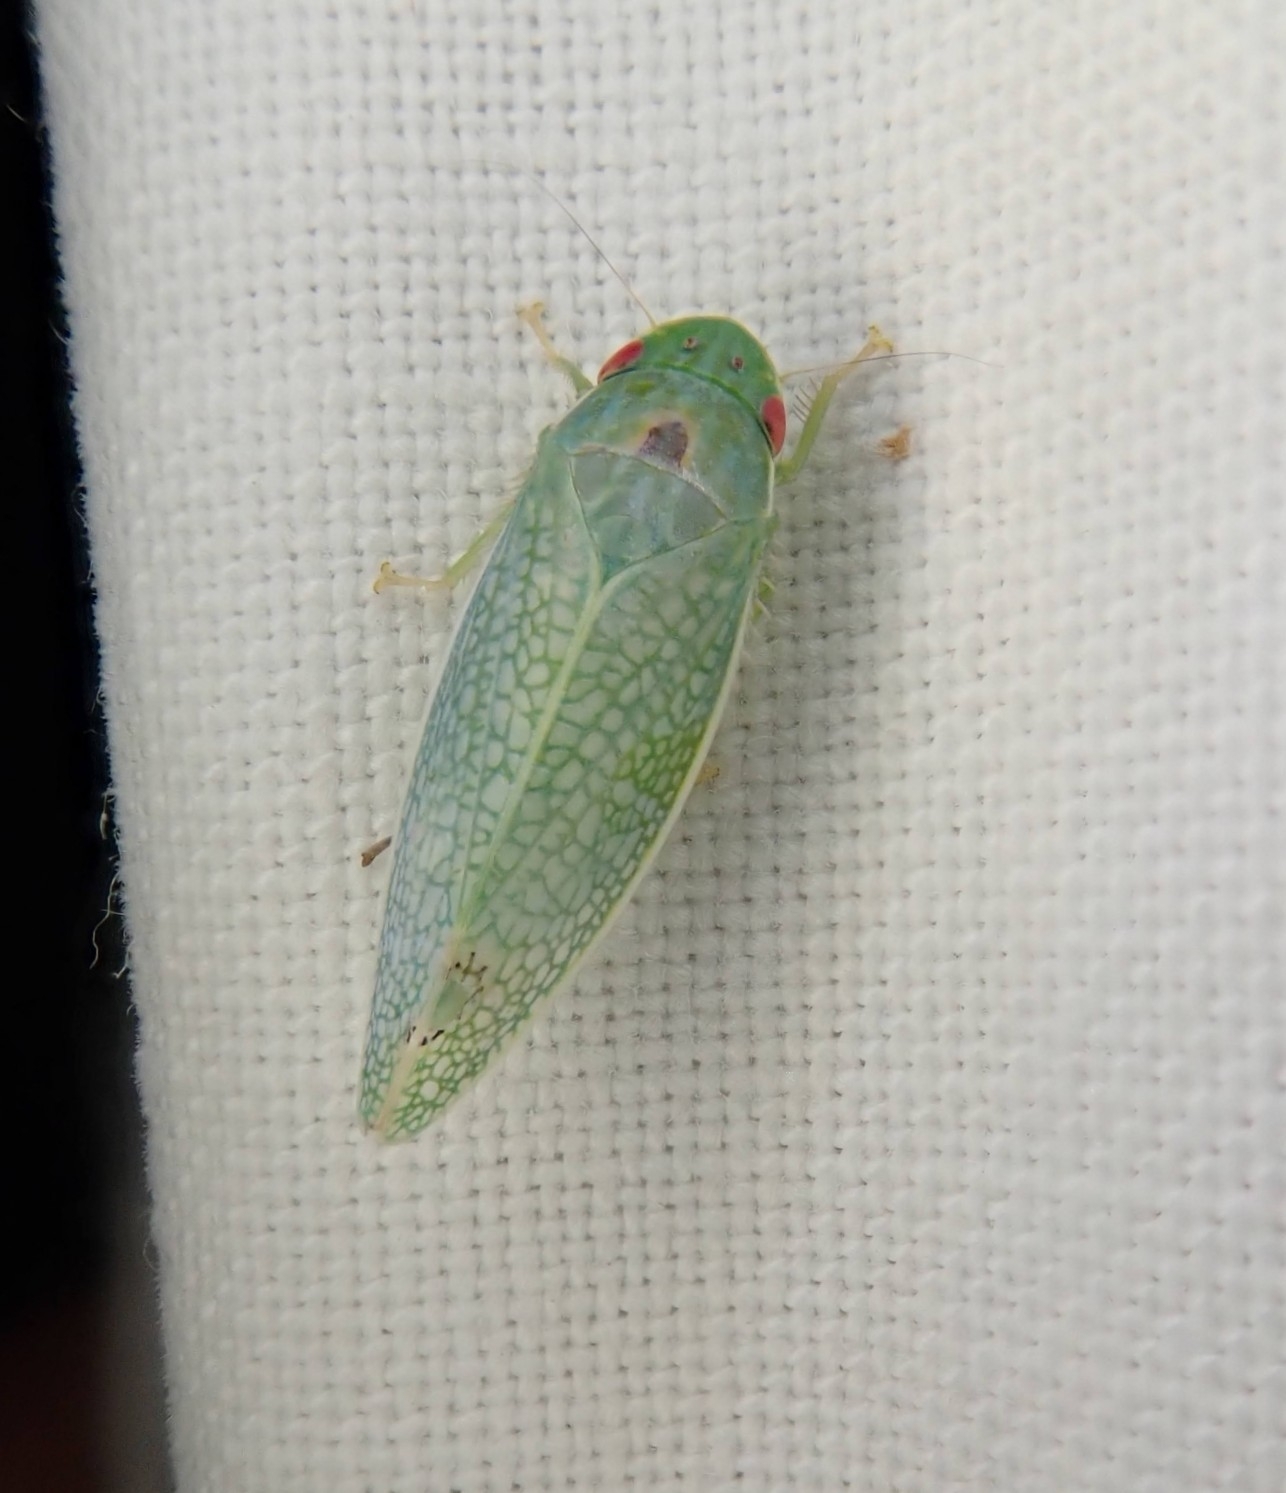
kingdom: Animalia
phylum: Arthropoda
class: Insecta
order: Hemiptera
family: Cicadellidae
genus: Gyponana
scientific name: Gyponana procera
